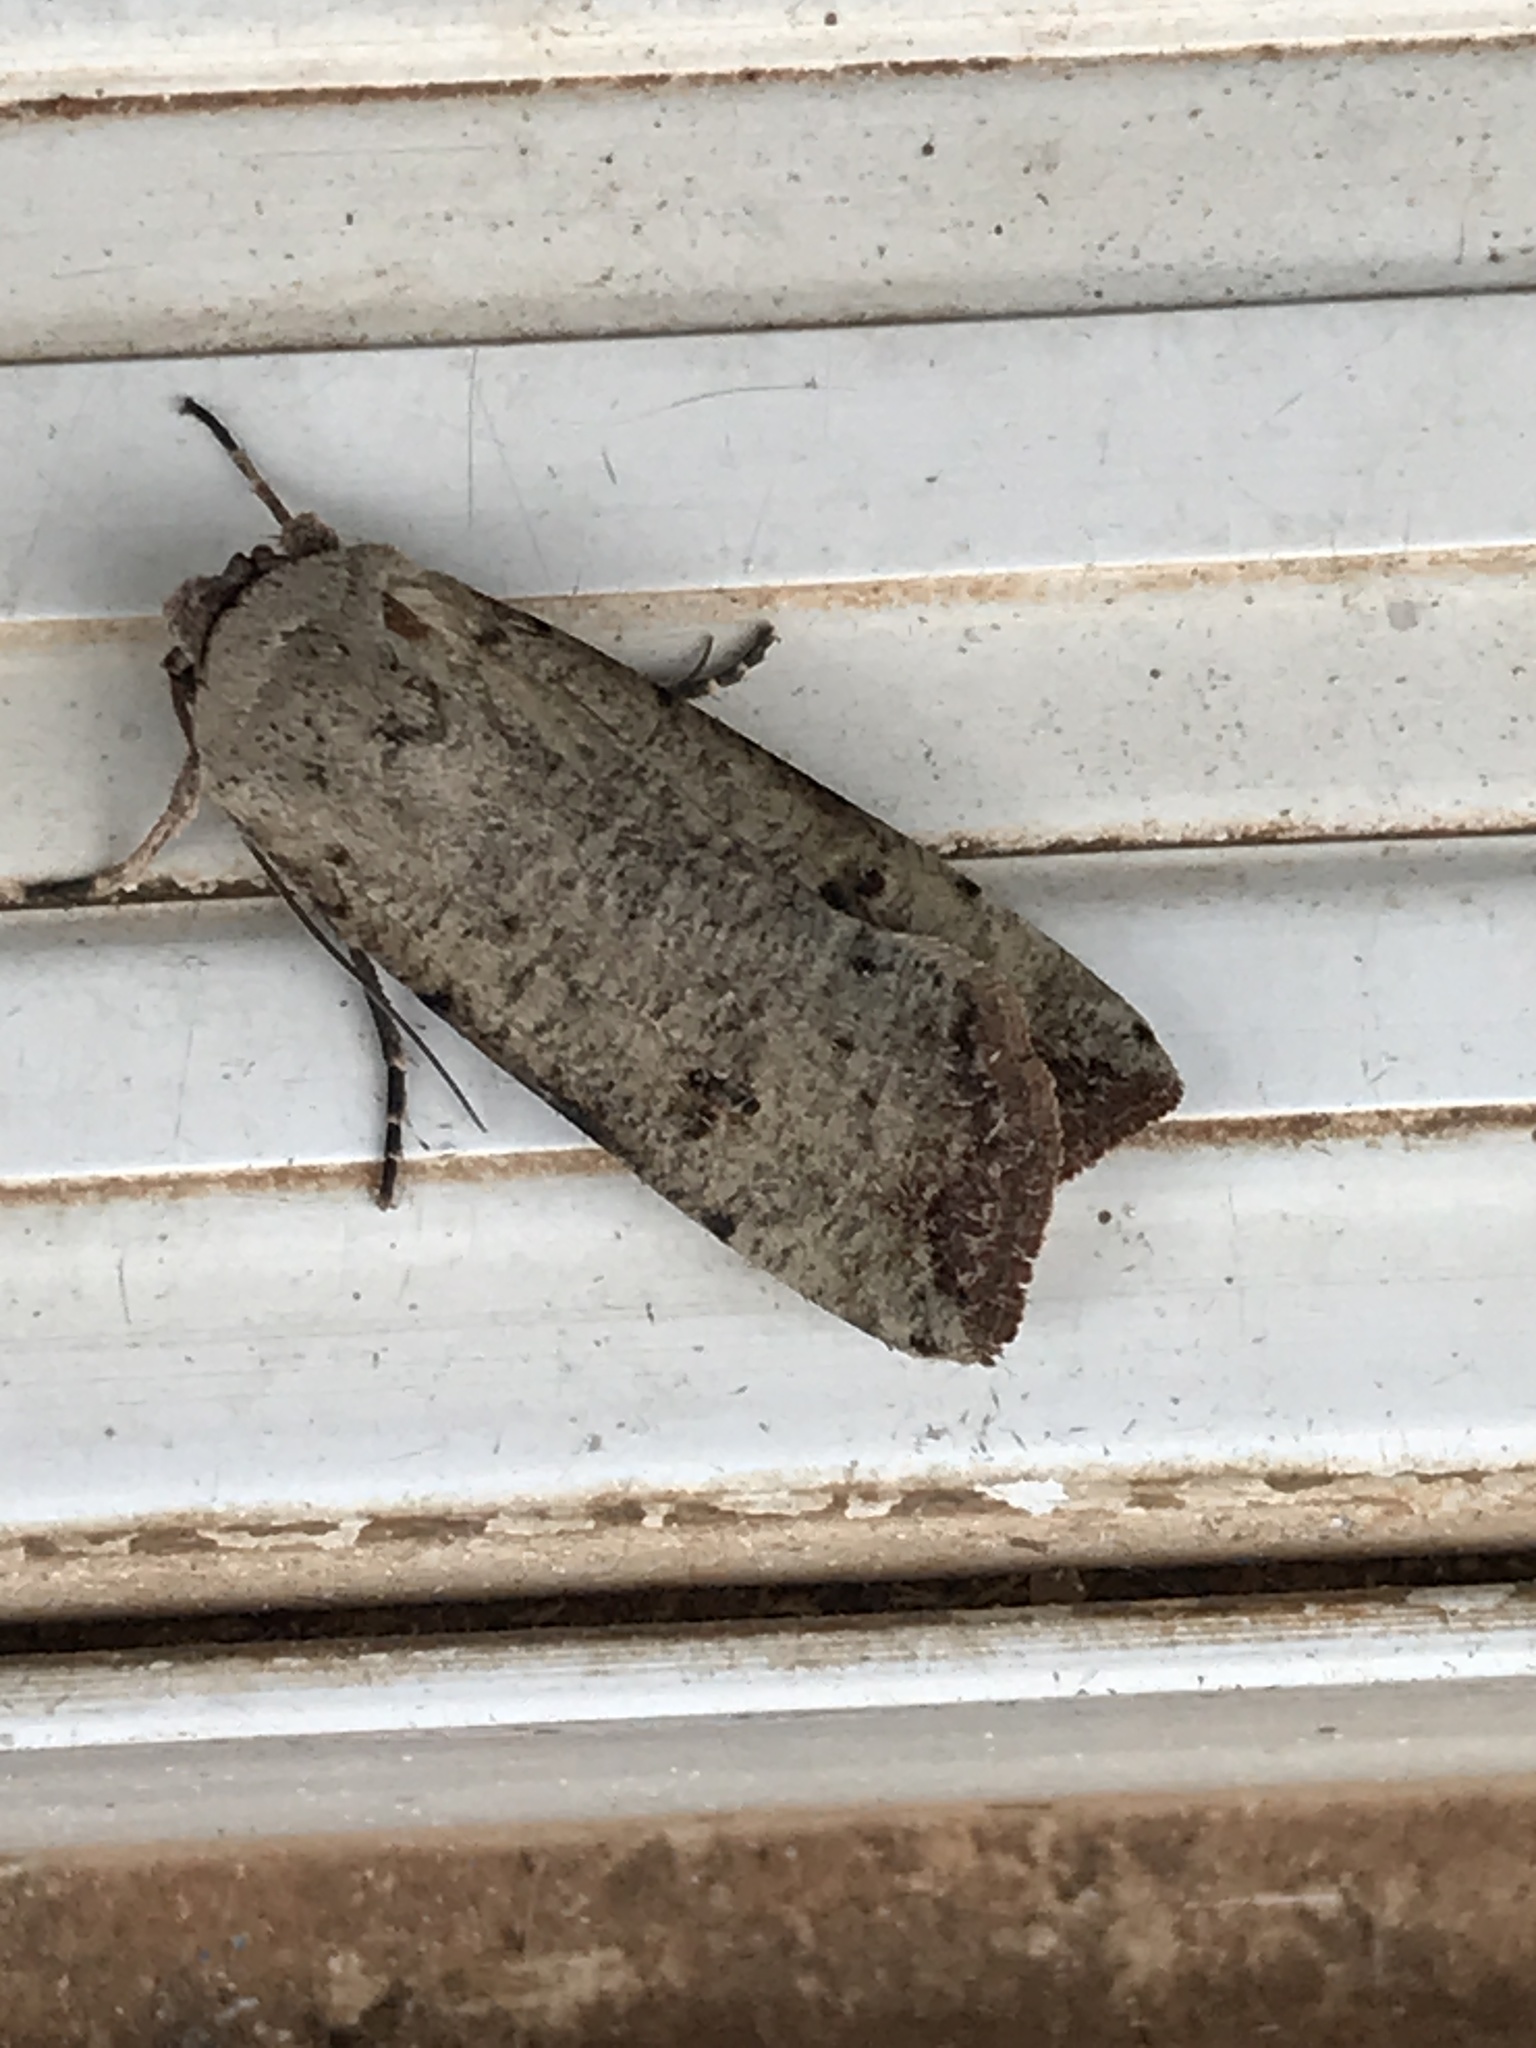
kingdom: Animalia
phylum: Arthropoda
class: Insecta
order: Lepidoptera
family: Noctuidae
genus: Anicla
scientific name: Anicla infecta
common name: Green cutworm
